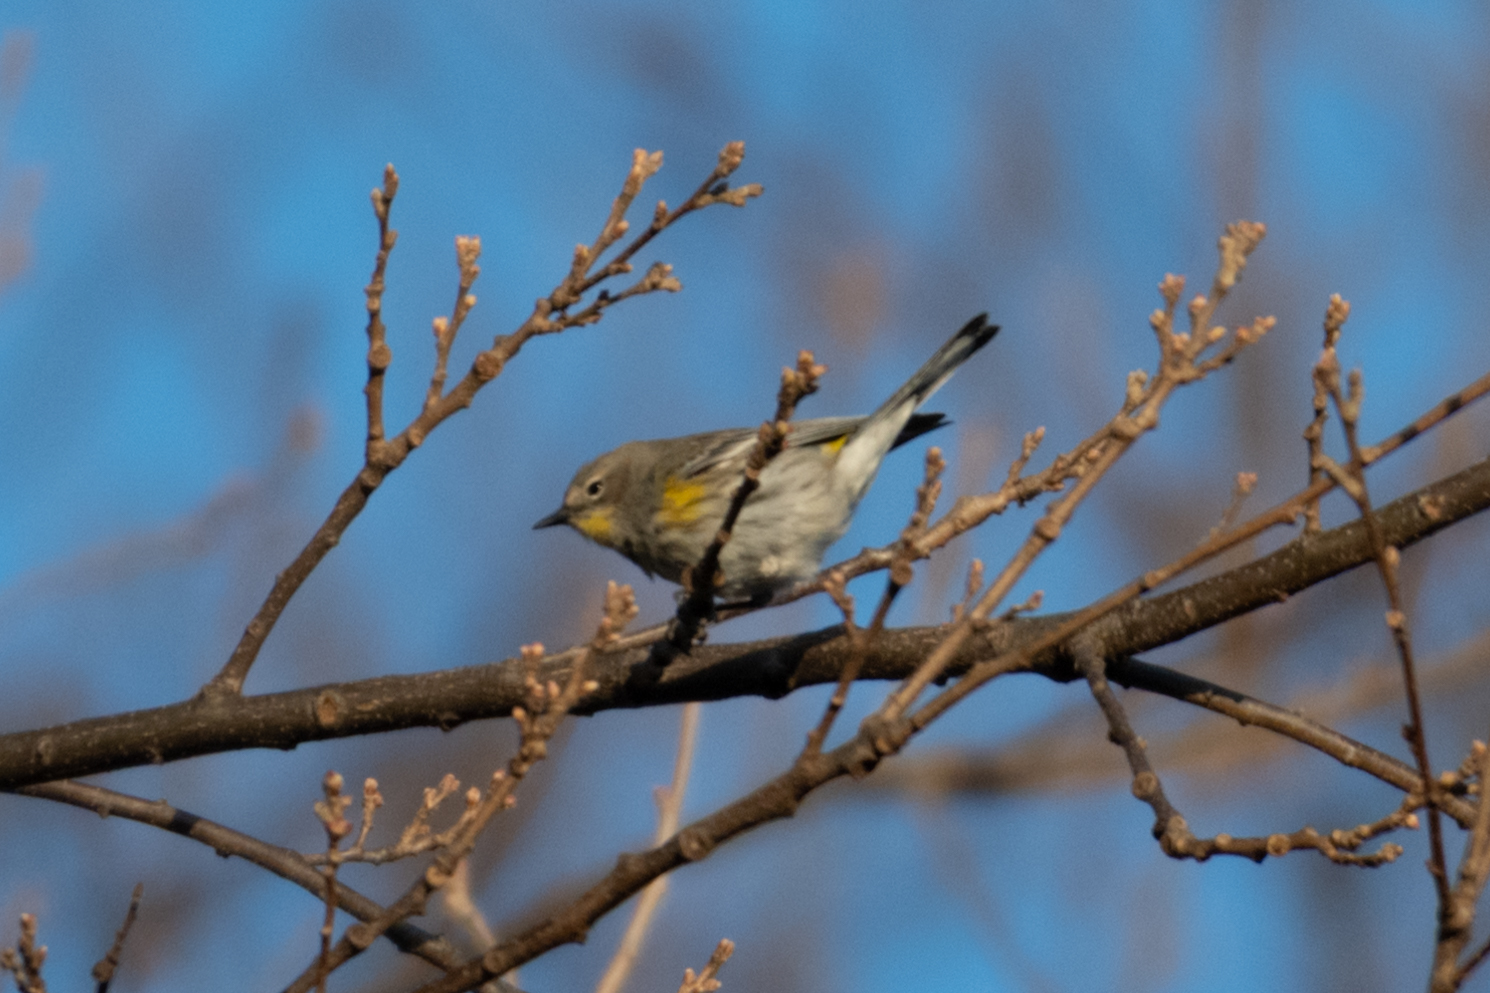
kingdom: Animalia
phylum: Chordata
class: Aves
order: Passeriformes
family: Parulidae
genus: Setophaga
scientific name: Setophaga coronata
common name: Myrtle warbler
